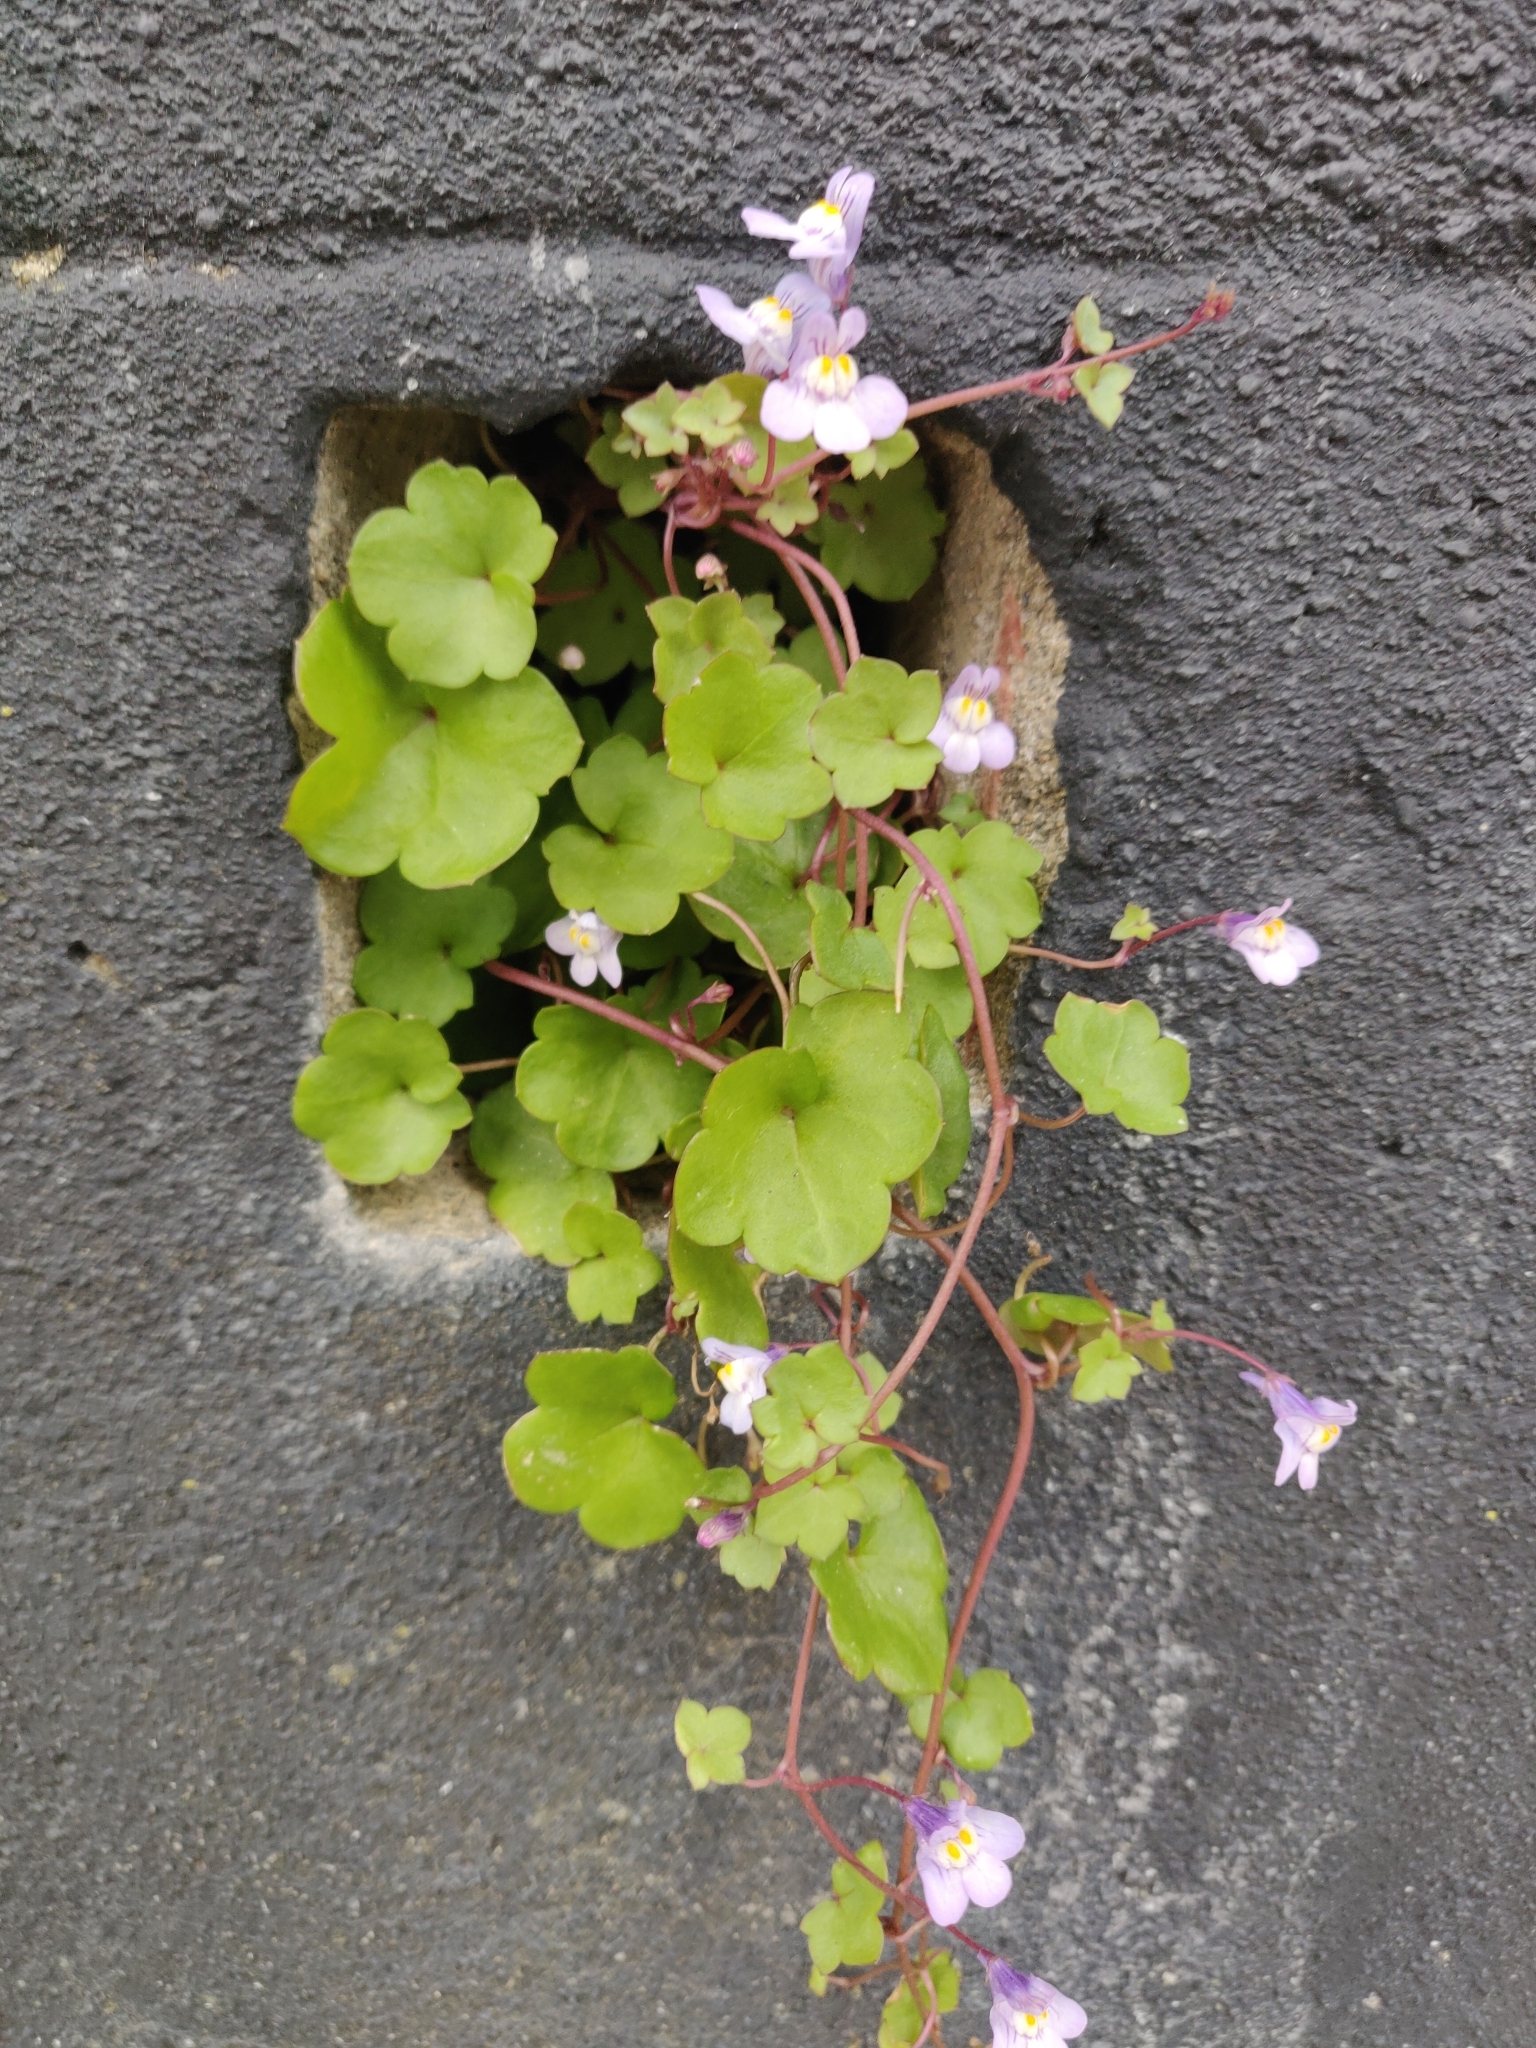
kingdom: Plantae
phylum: Tracheophyta
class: Magnoliopsida
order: Lamiales
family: Plantaginaceae
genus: Cymbalaria
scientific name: Cymbalaria muralis
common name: Ivy-leaved toadflax
